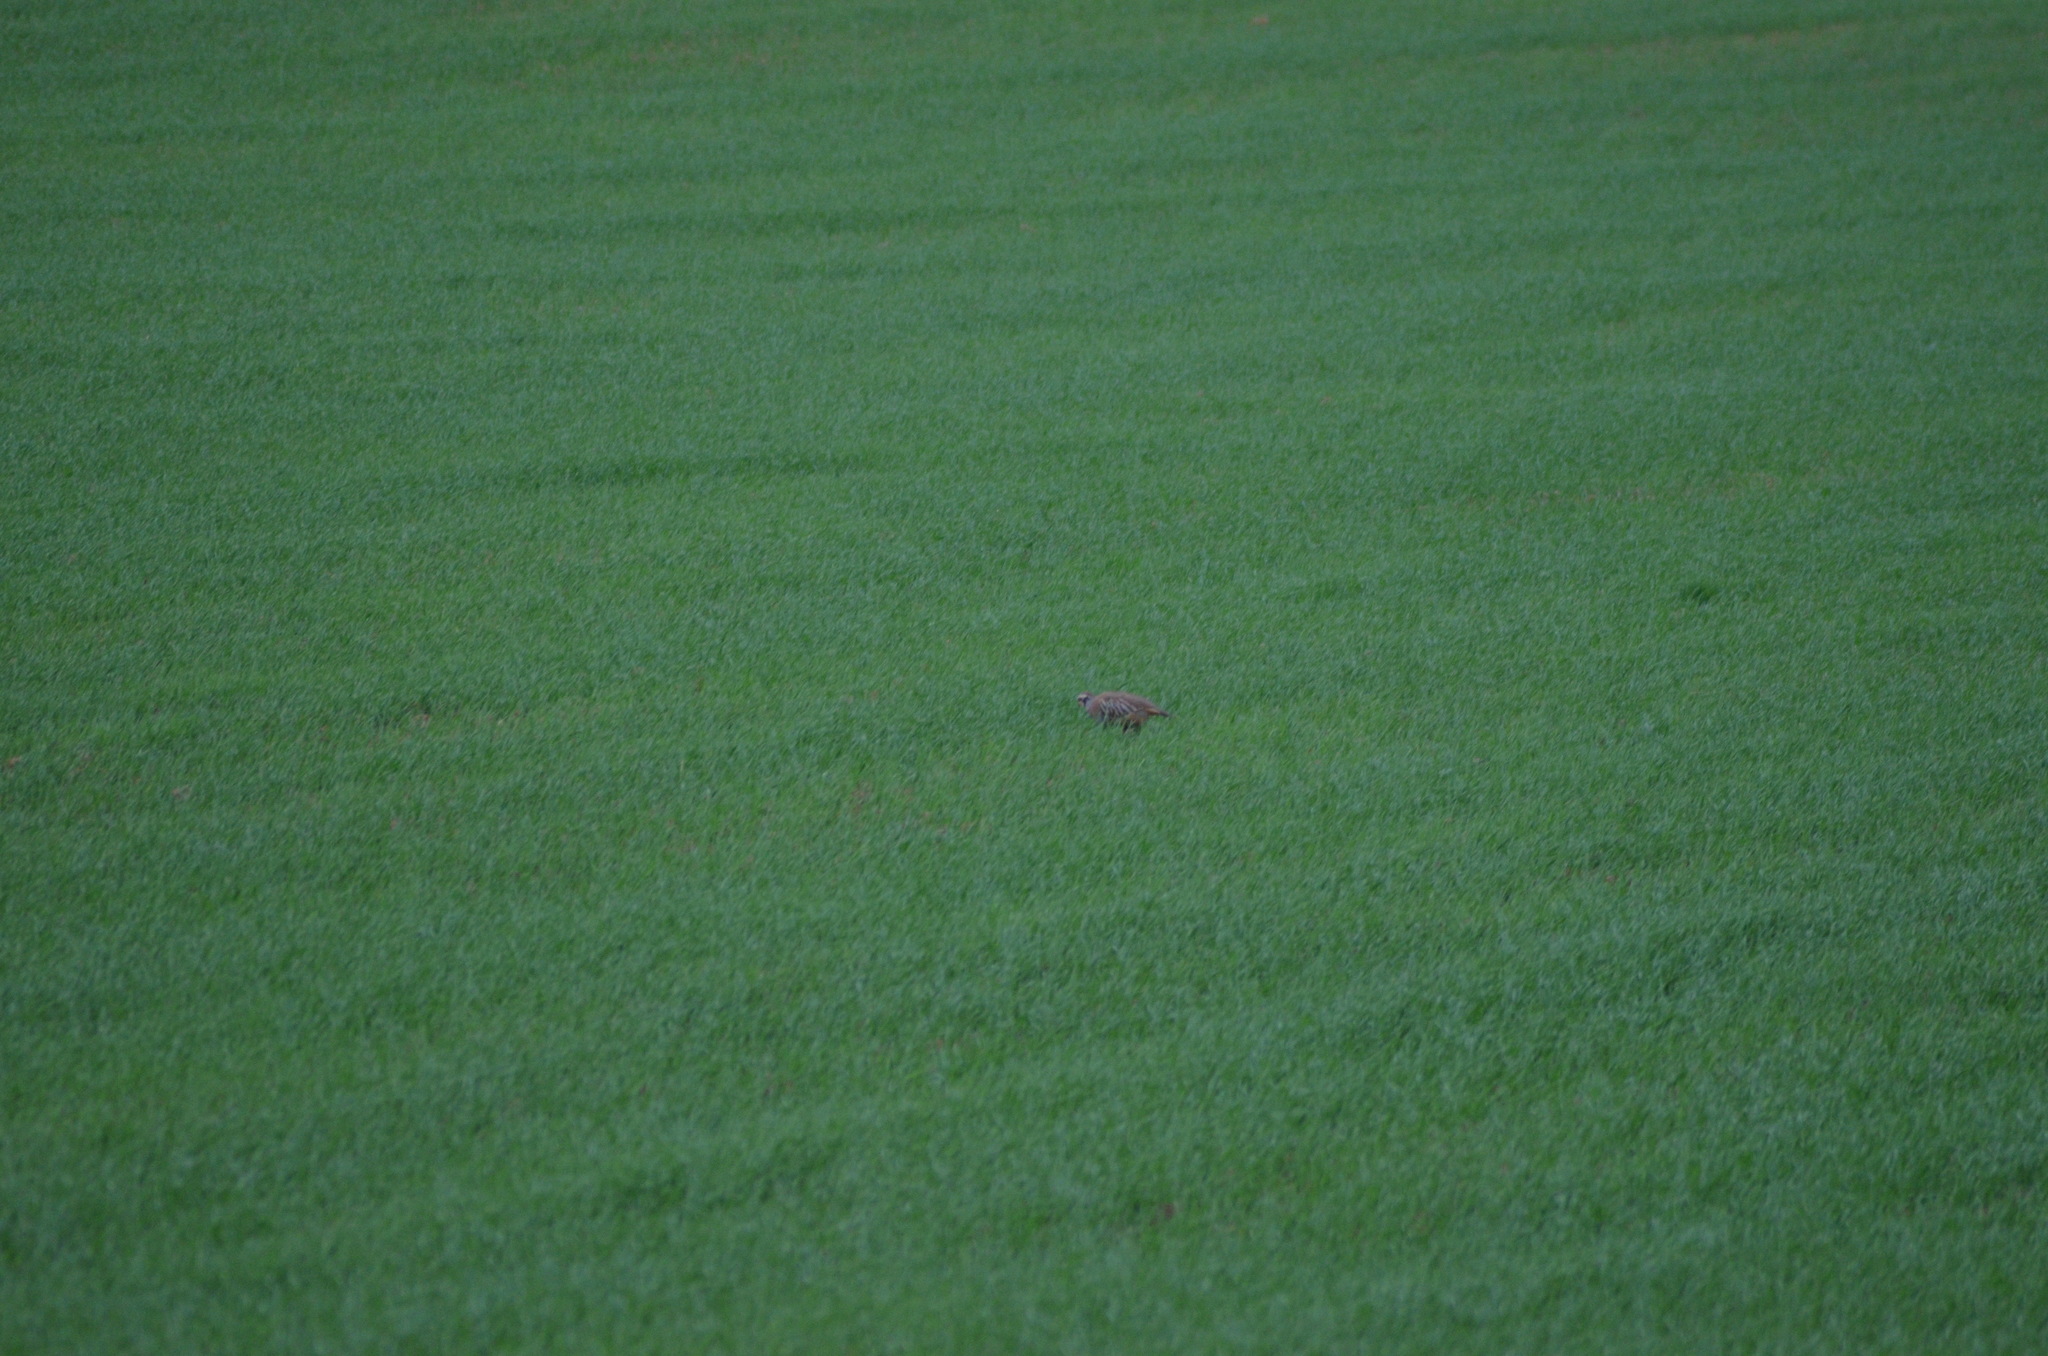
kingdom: Animalia
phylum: Chordata
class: Aves
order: Galliformes
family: Phasianidae
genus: Alectoris
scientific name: Alectoris rufa
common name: Red-legged partridge
